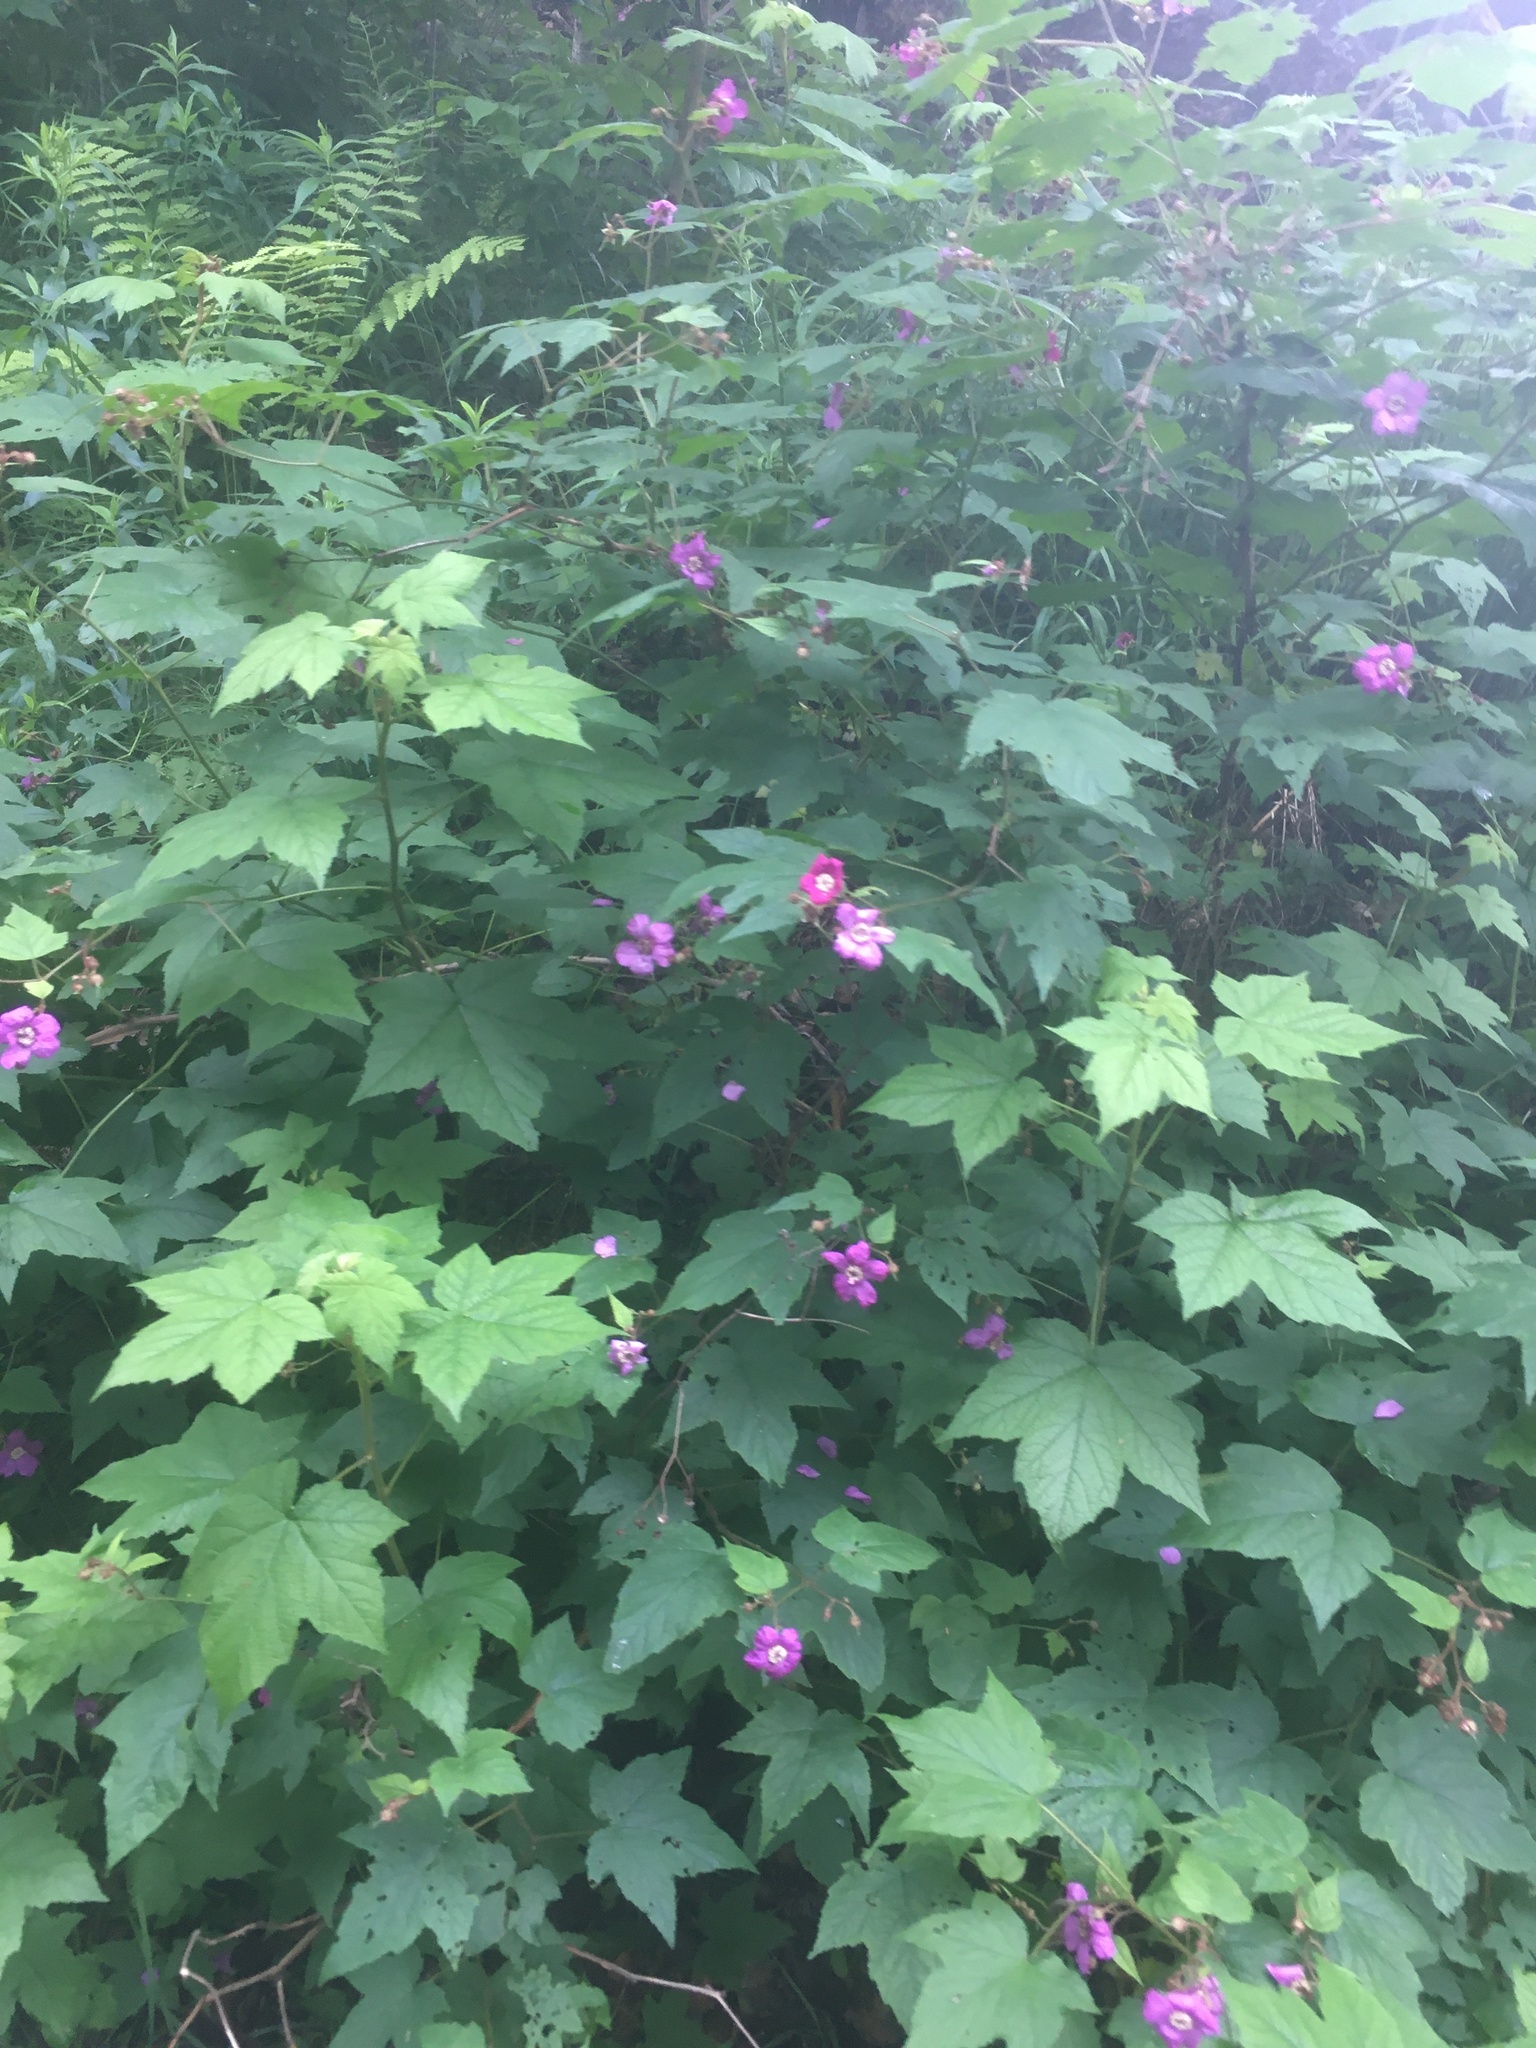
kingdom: Plantae
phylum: Tracheophyta
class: Magnoliopsida
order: Rosales
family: Rosaceae
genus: Rubus
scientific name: Rubus odoratus
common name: Purple-flowered raspberry
